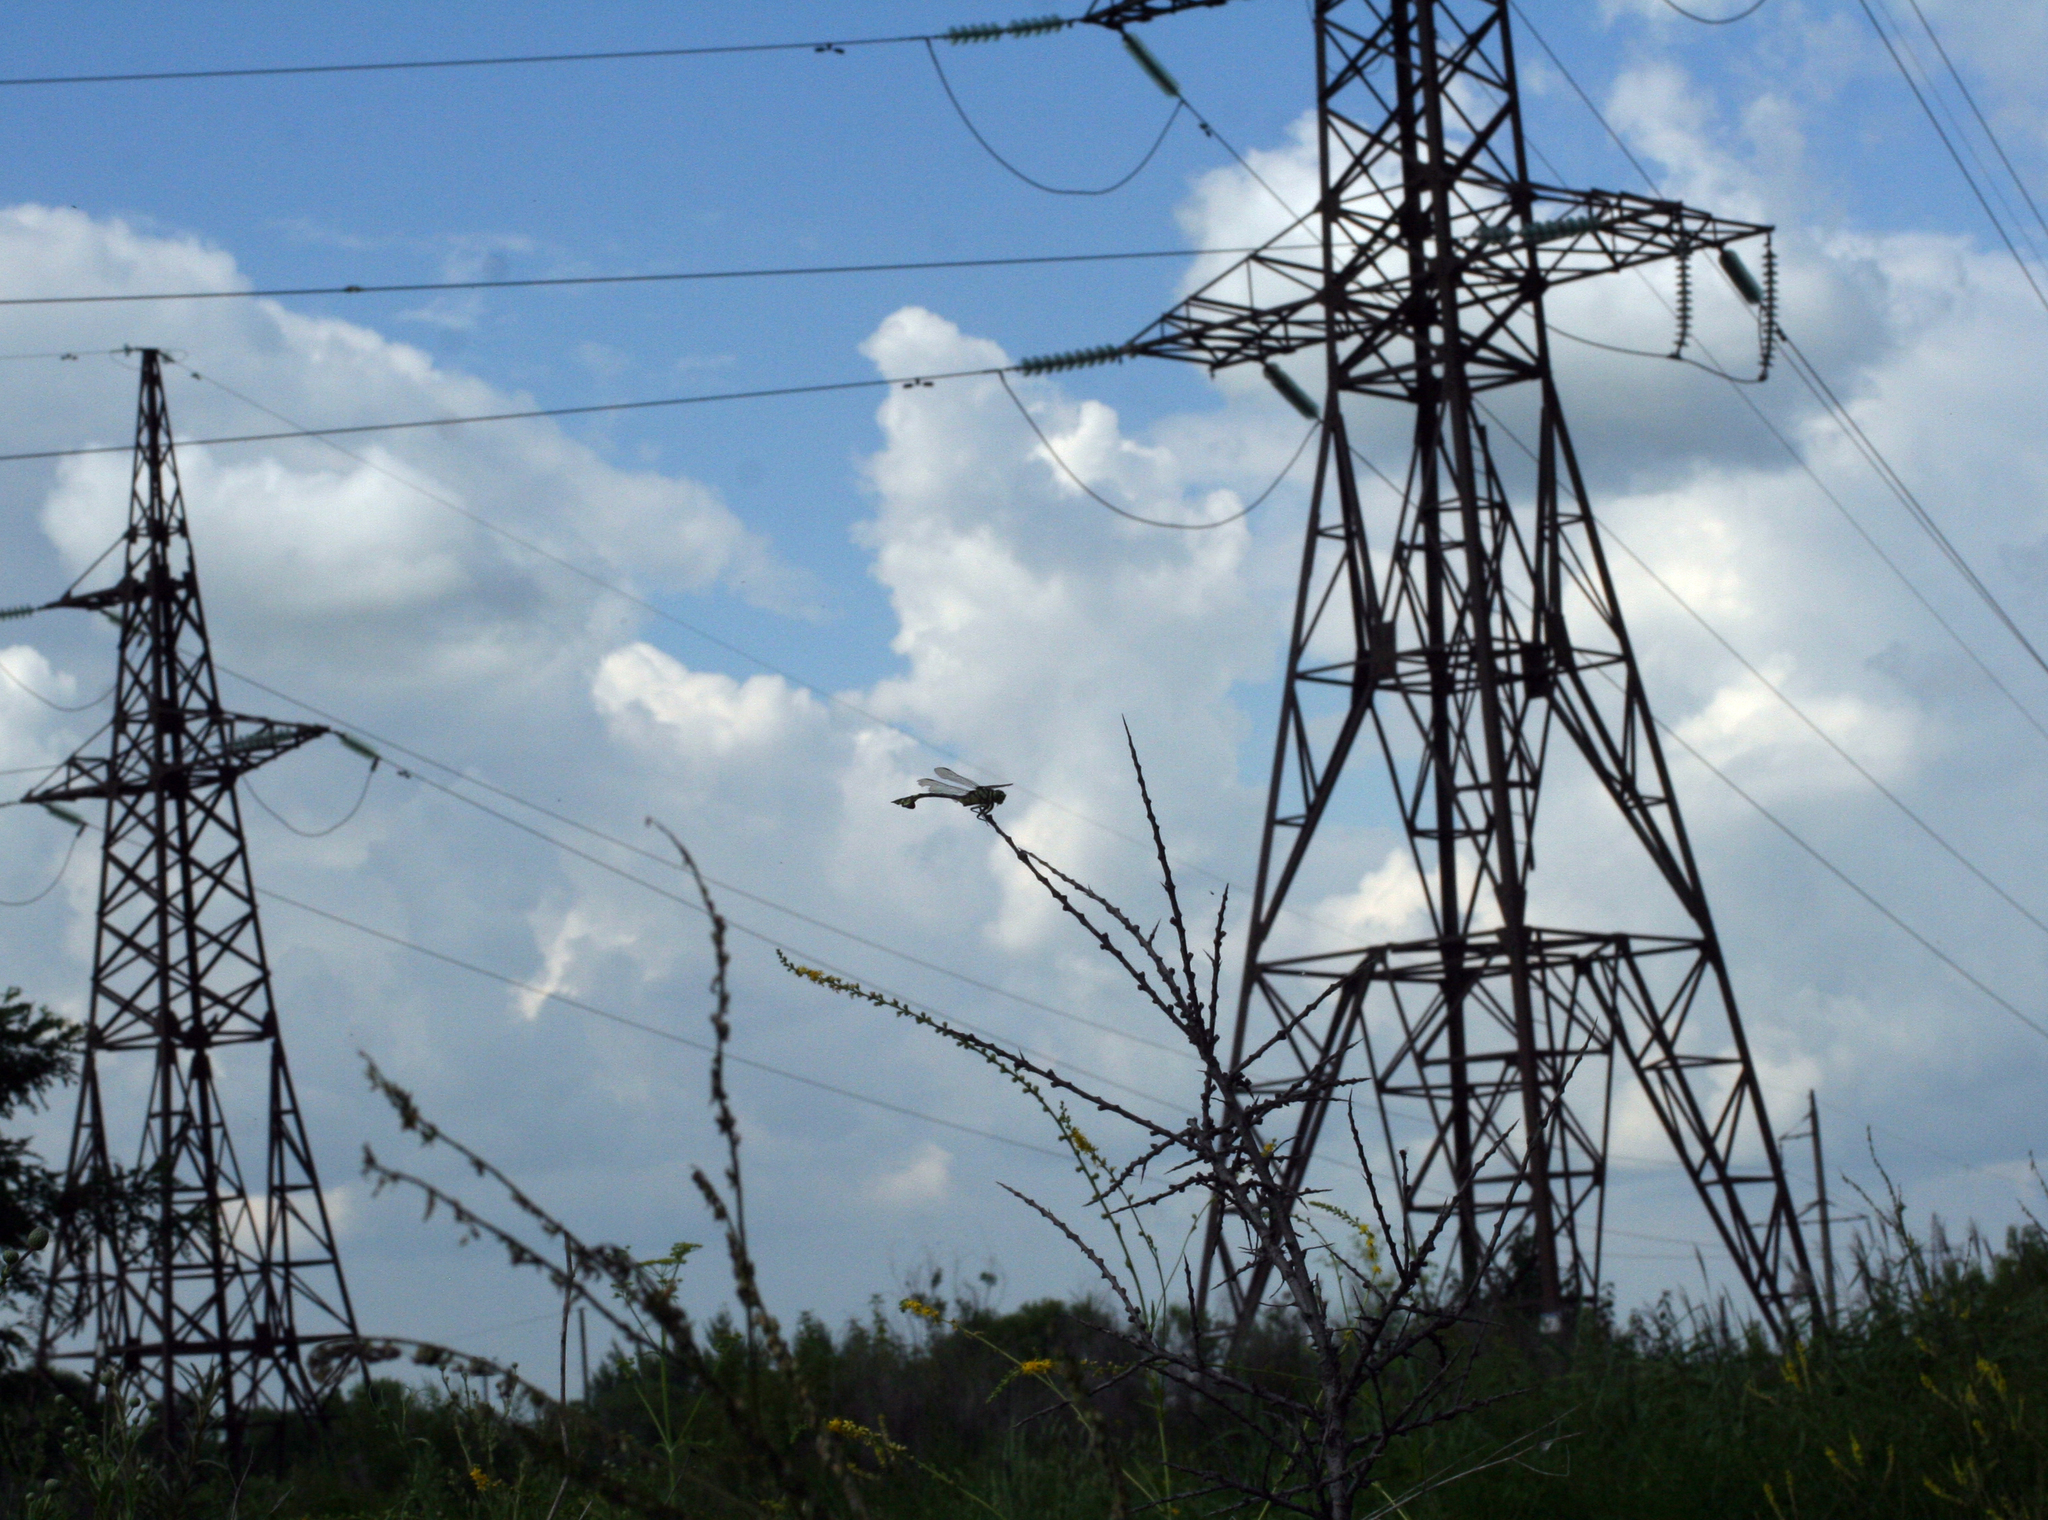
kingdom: Animalia
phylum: Arthropoda
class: Insecta
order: Odonata
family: Gomphidae
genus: Sinictinogomphus
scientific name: Sinictinogomphus clavatus
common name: Golden flangetail
